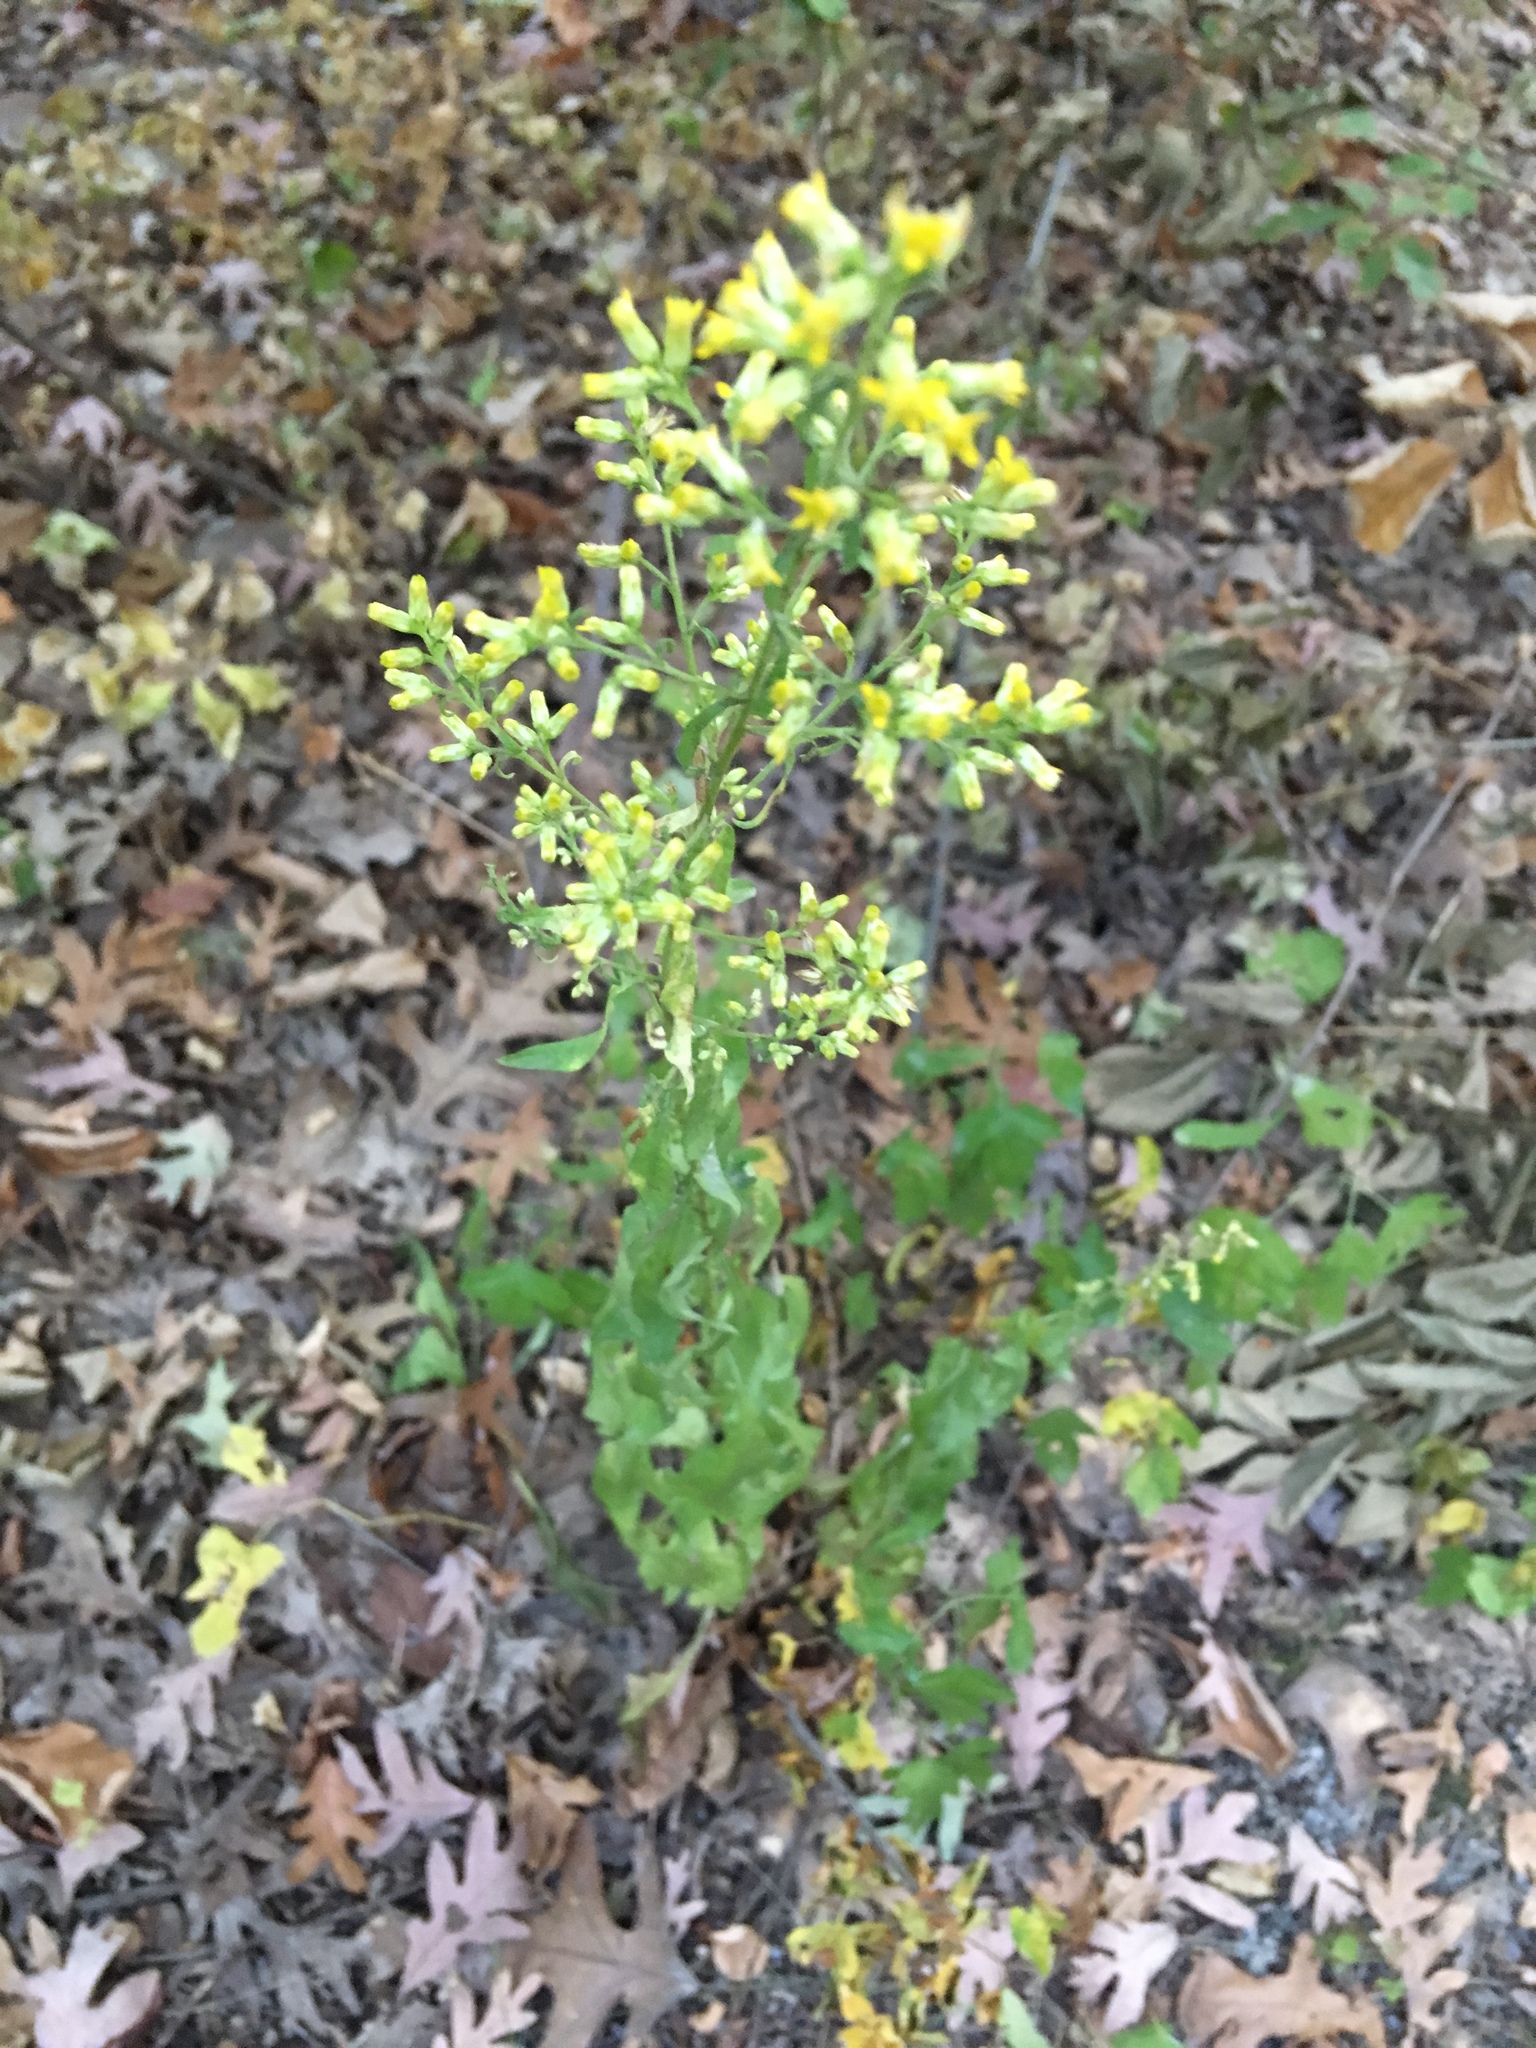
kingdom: Plantae
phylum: Tracheophyta
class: Magnoliopsida
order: Asterales
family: Asteraceae
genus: Solidago
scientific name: Solidago speciosa
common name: Showy goldenrod
